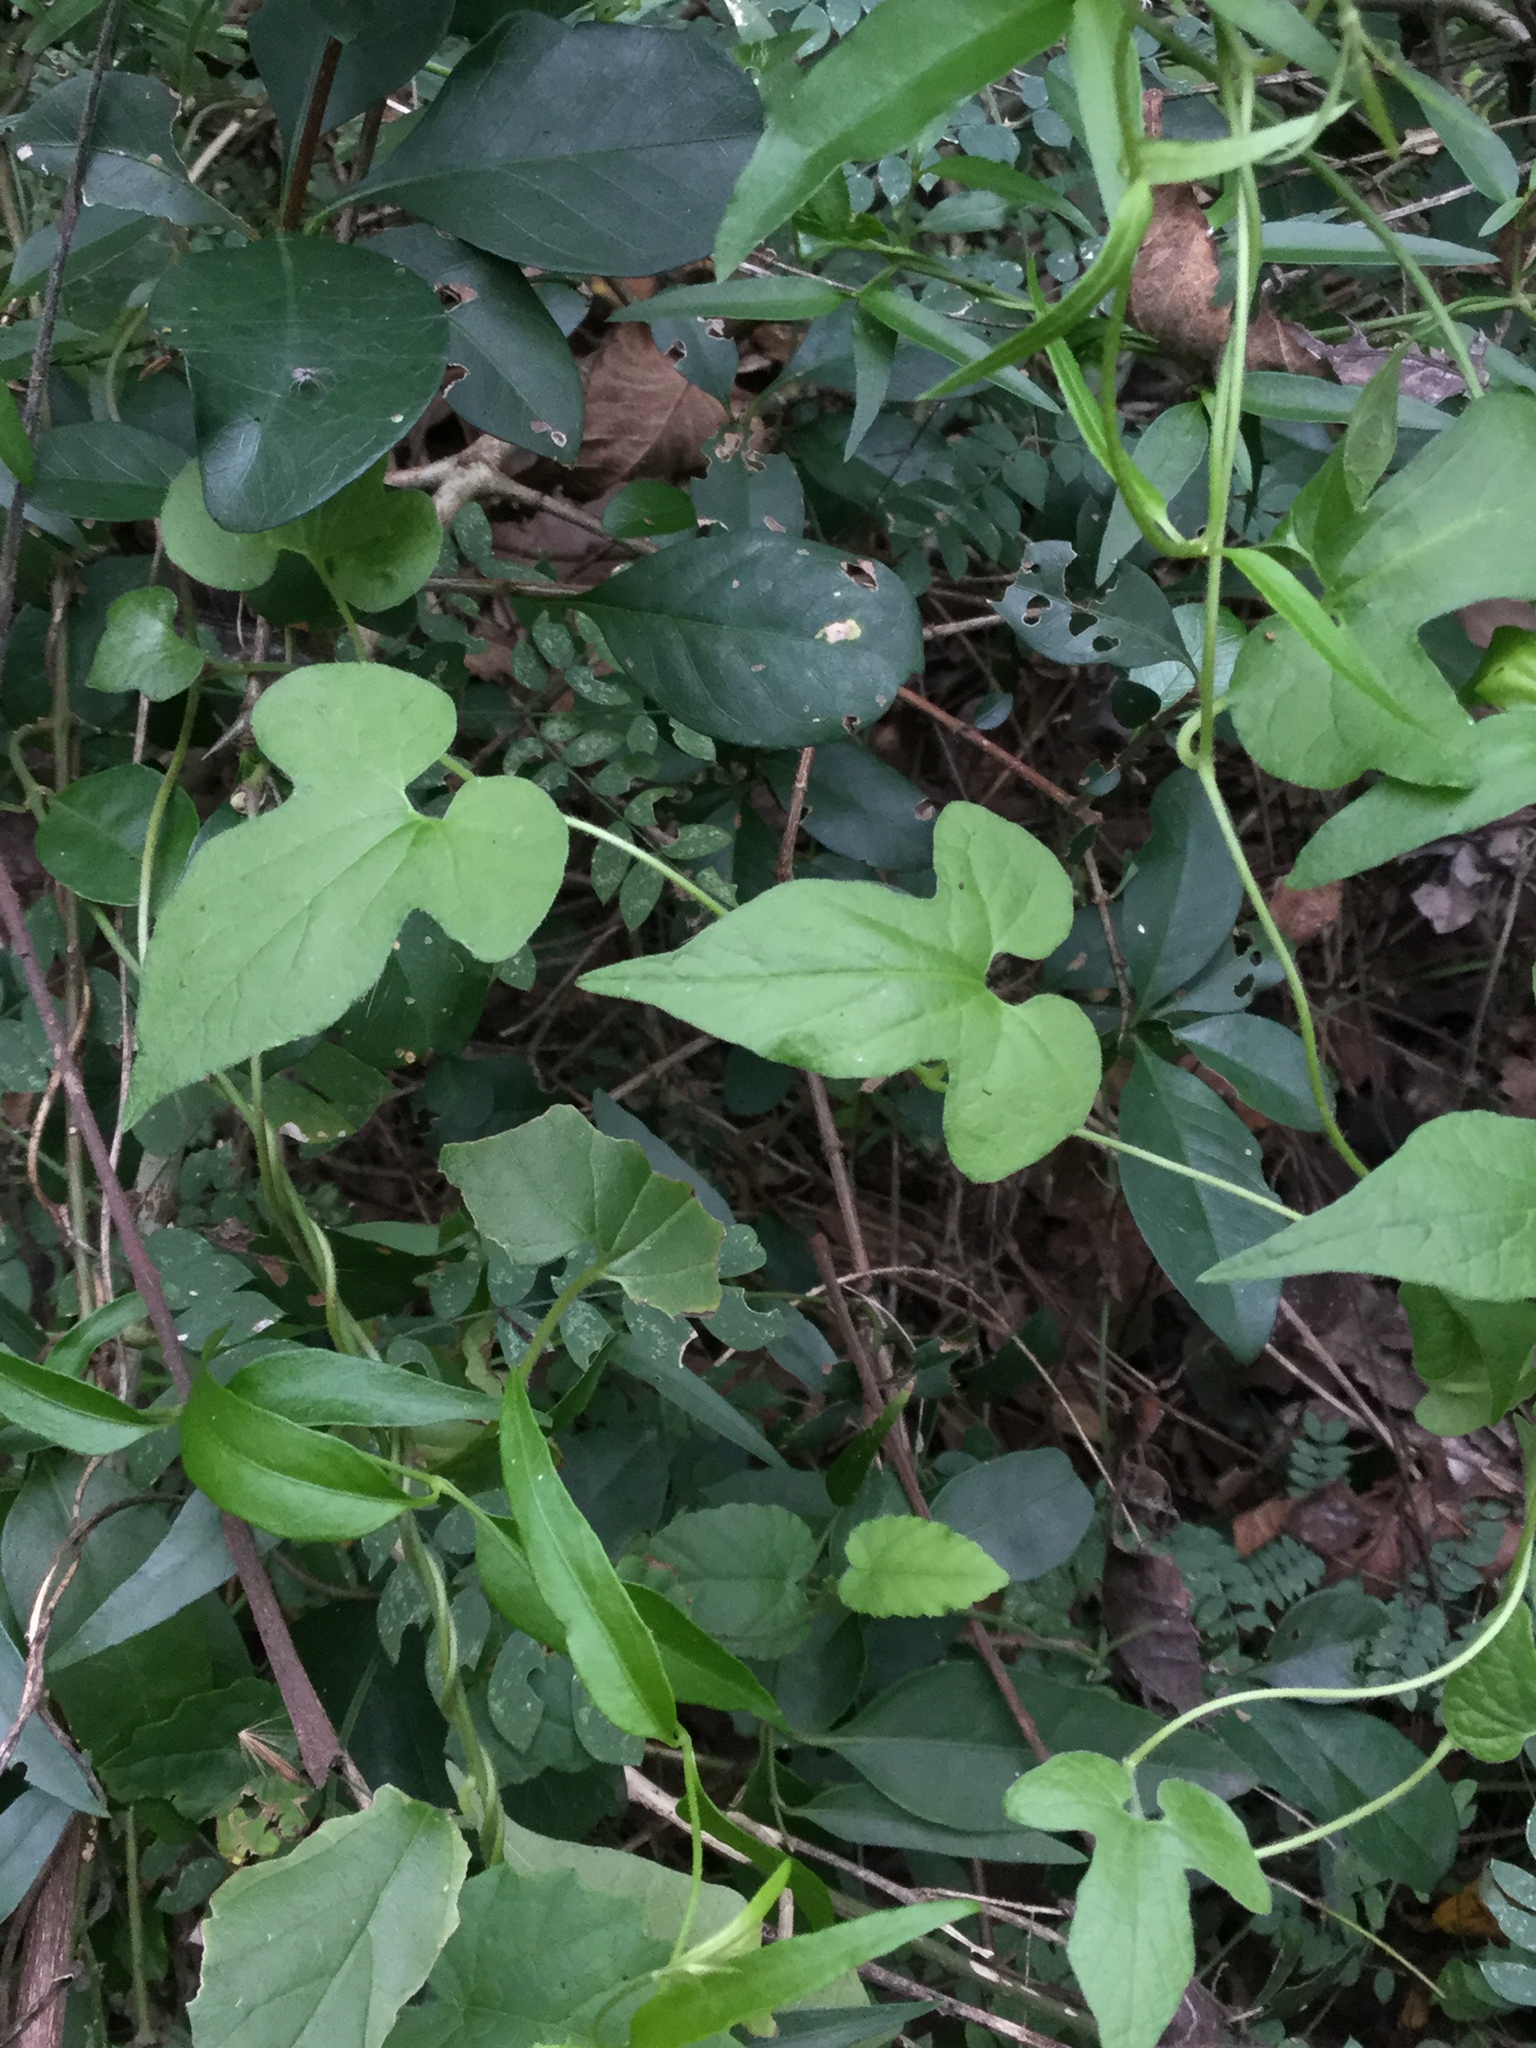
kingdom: Plantae
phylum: Tracheophyta
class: Magnoliopsida
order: Piperales
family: Aristolochiaceae
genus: Aristolochia
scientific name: Aristolochia pentandra
